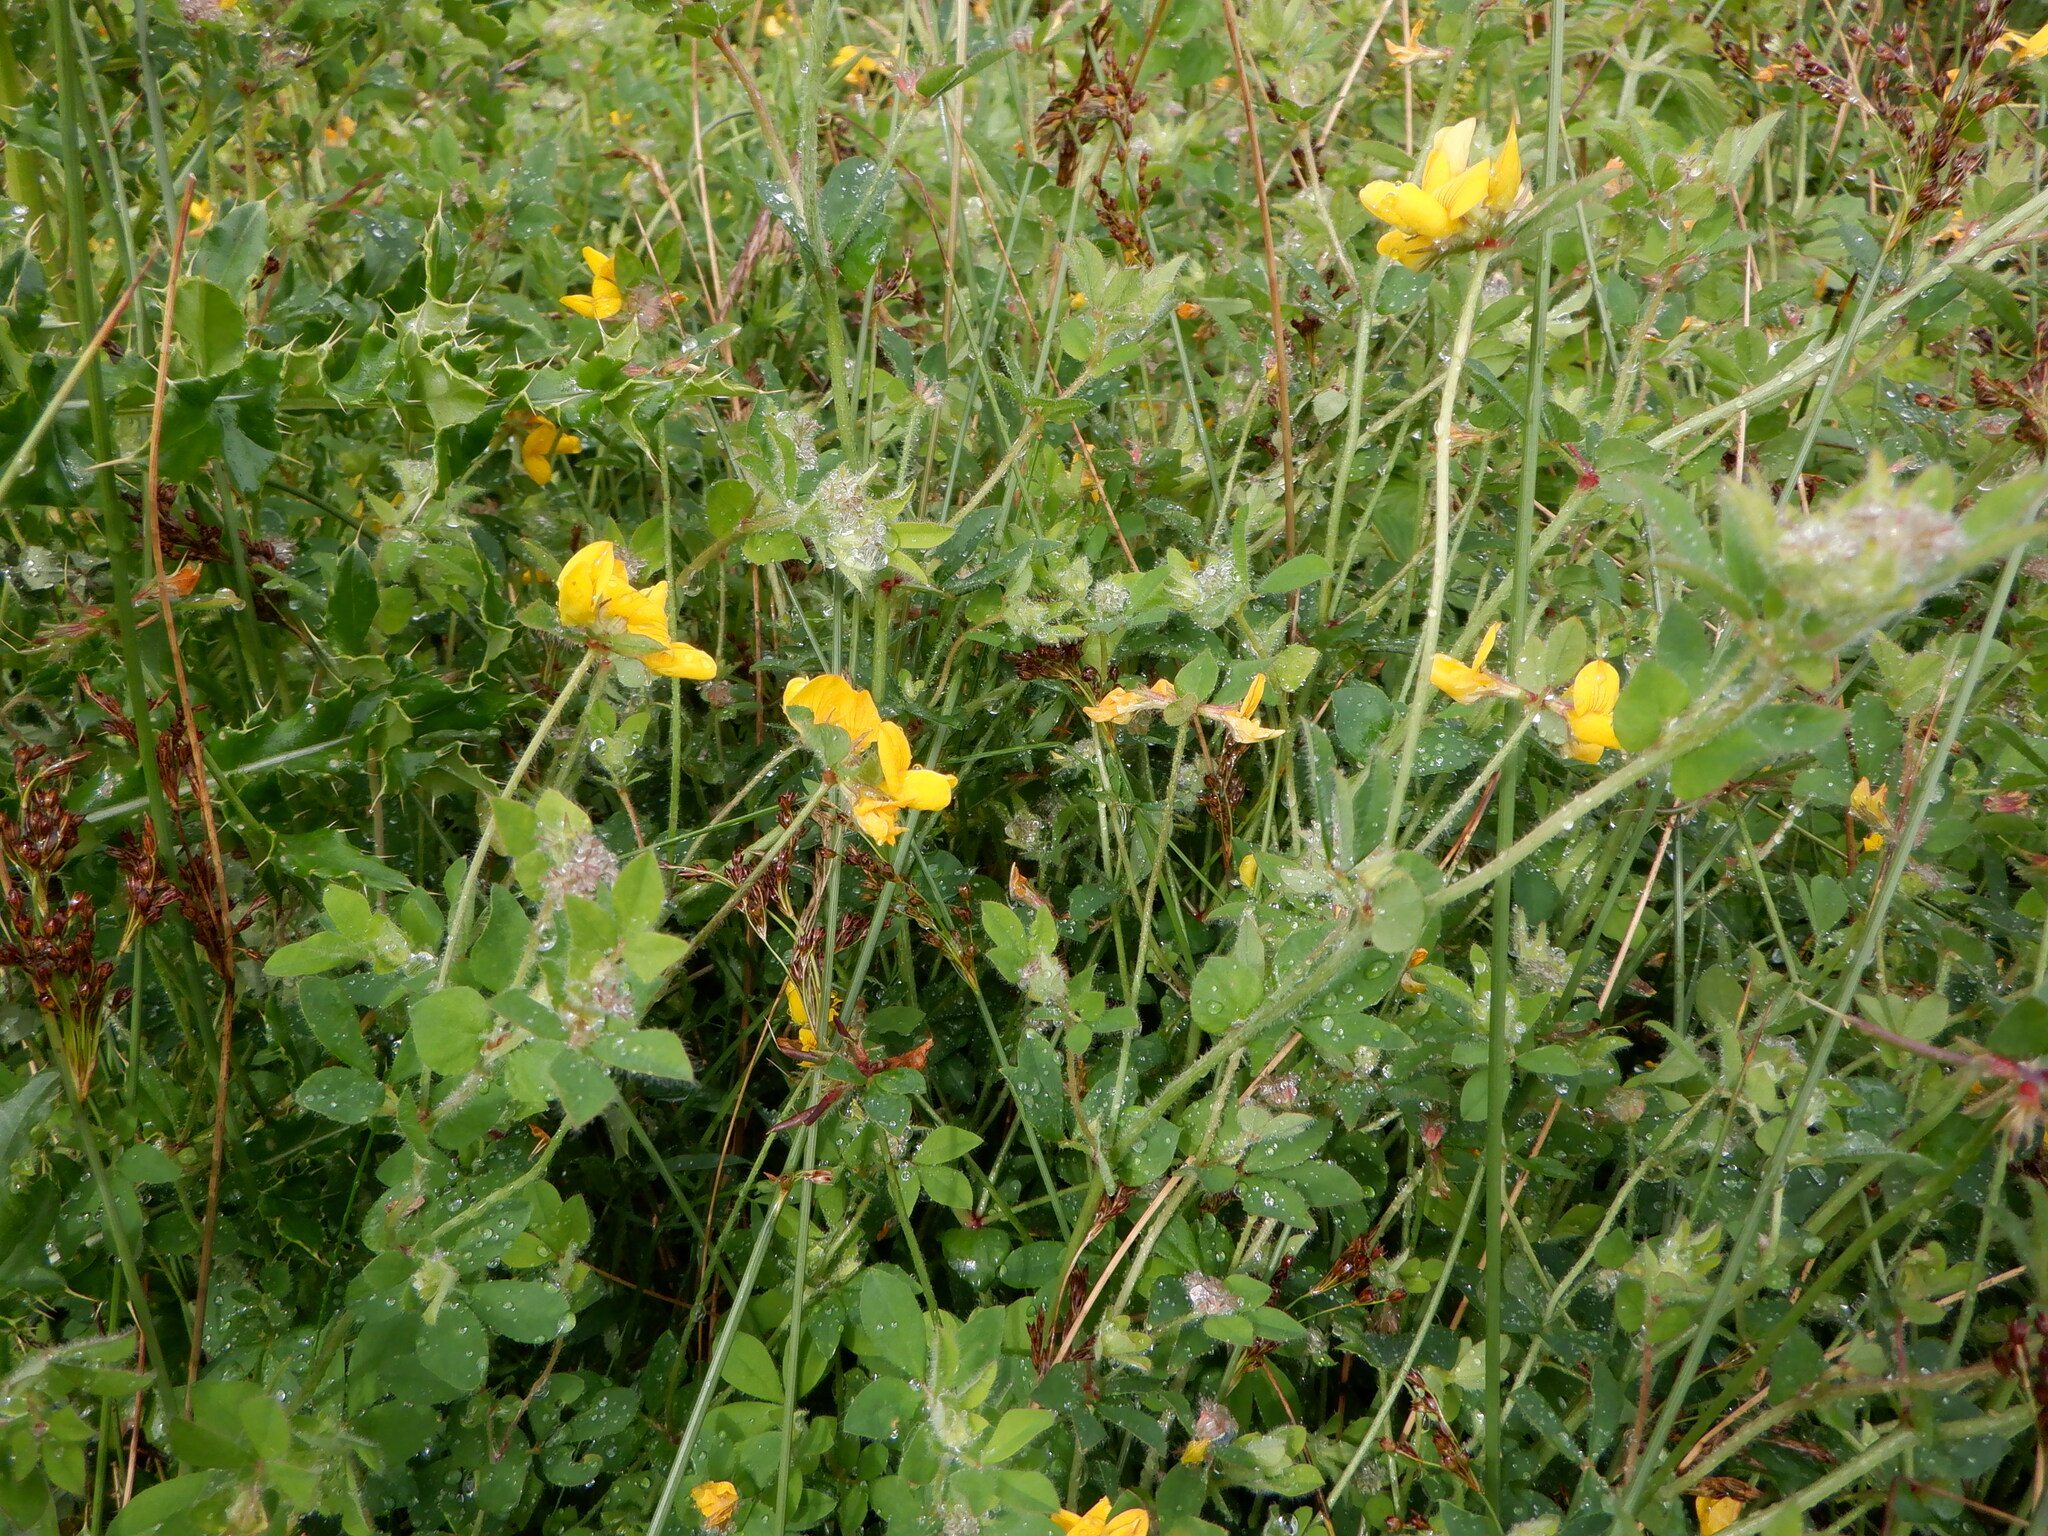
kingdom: Plantae
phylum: Tracheophyta
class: Magnoliopsida
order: Fabales
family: Fabaceae
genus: Lotus
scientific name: Lotus pedunculatus
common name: Greater birdsfoot-trefoil
